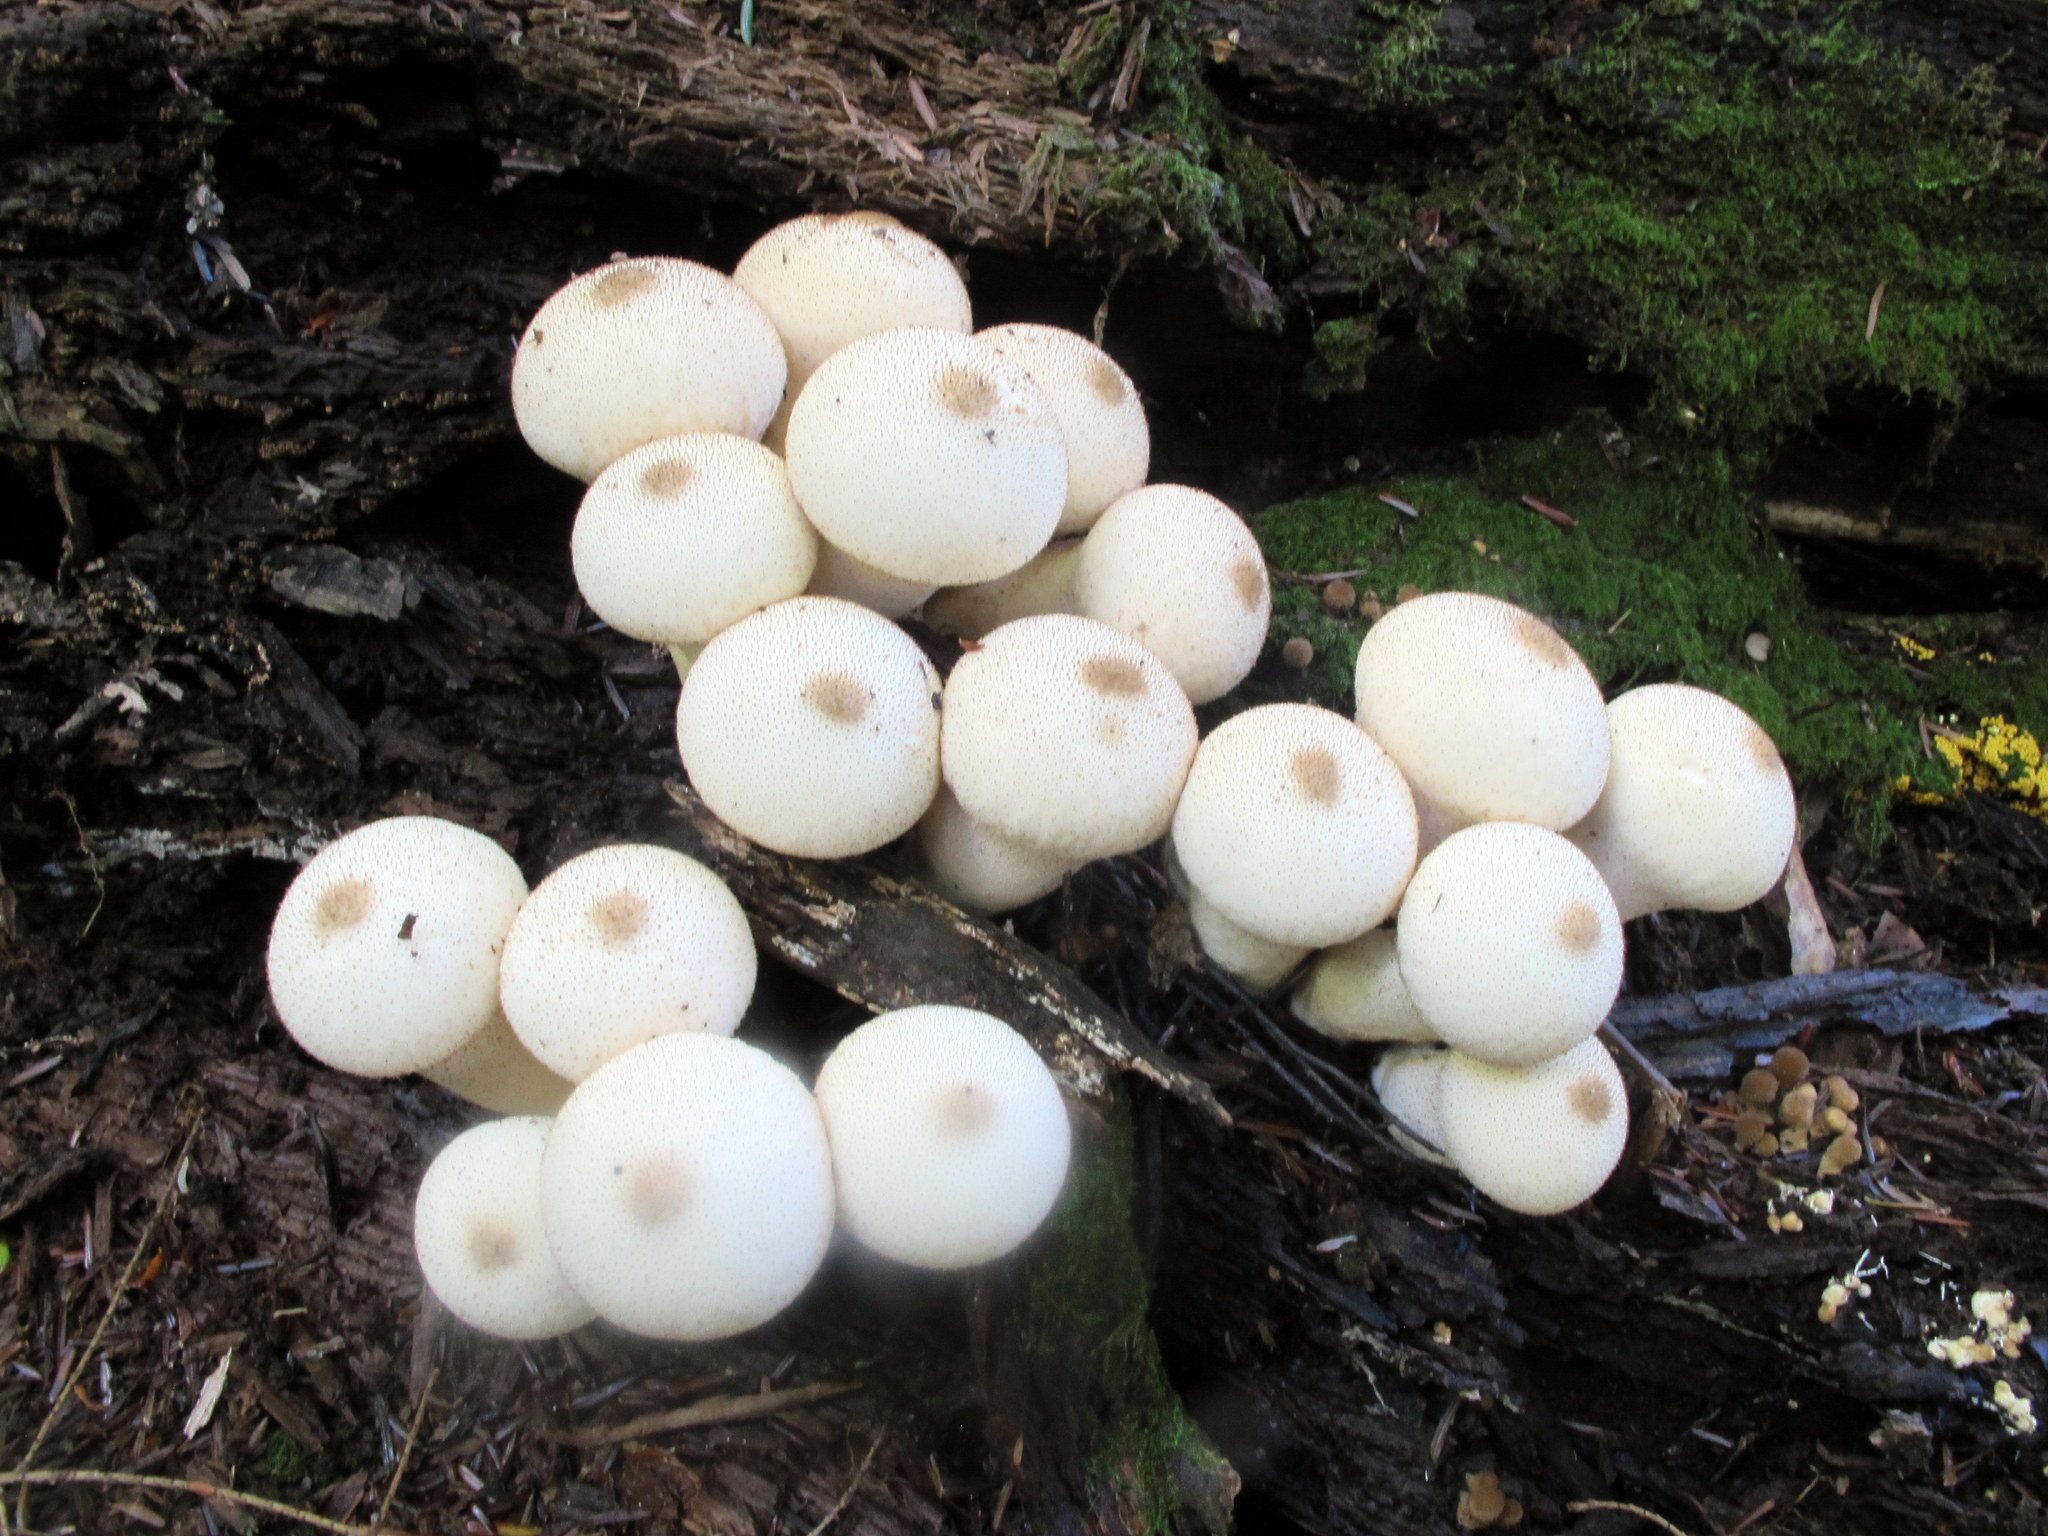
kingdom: Fungi
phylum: Basidiomycota
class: Agaricomycetes
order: Agaricales
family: Lycoperdaceae
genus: Lycoperdon
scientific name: Lycoperdon perlatum
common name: Common puffball
